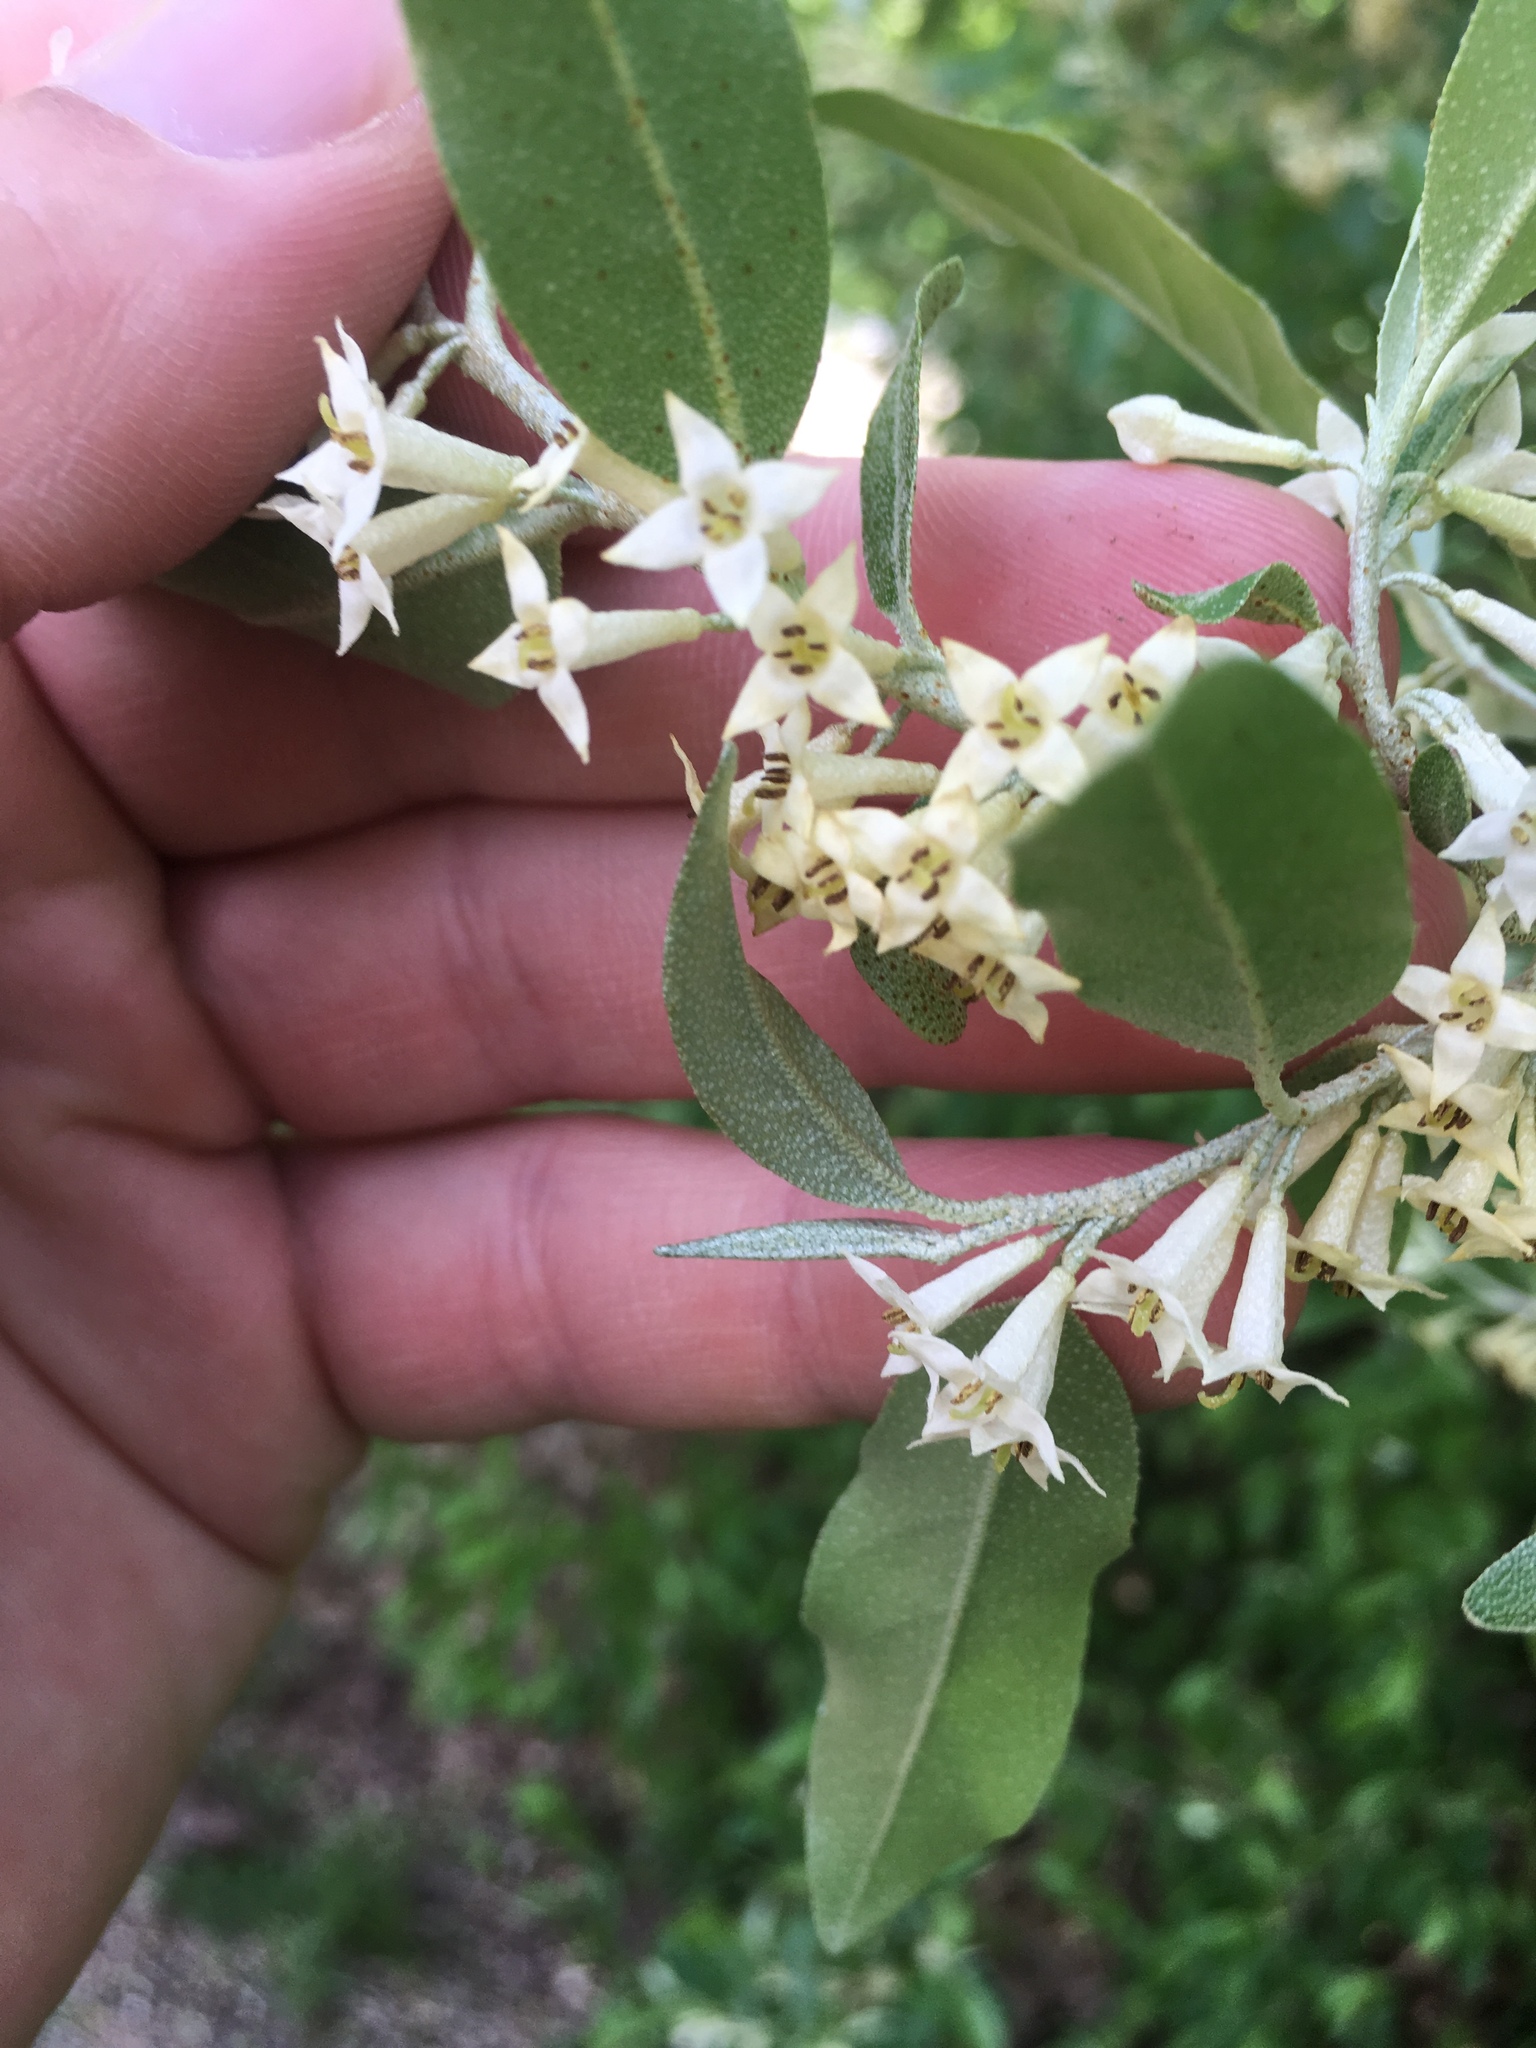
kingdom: Plantae
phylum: Tracheophyta
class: Magnoliopsida
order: Rosales
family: Elaeagnaceae
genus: Elaeagnus
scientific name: Elaeagnus umbellata
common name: Autumn olive
